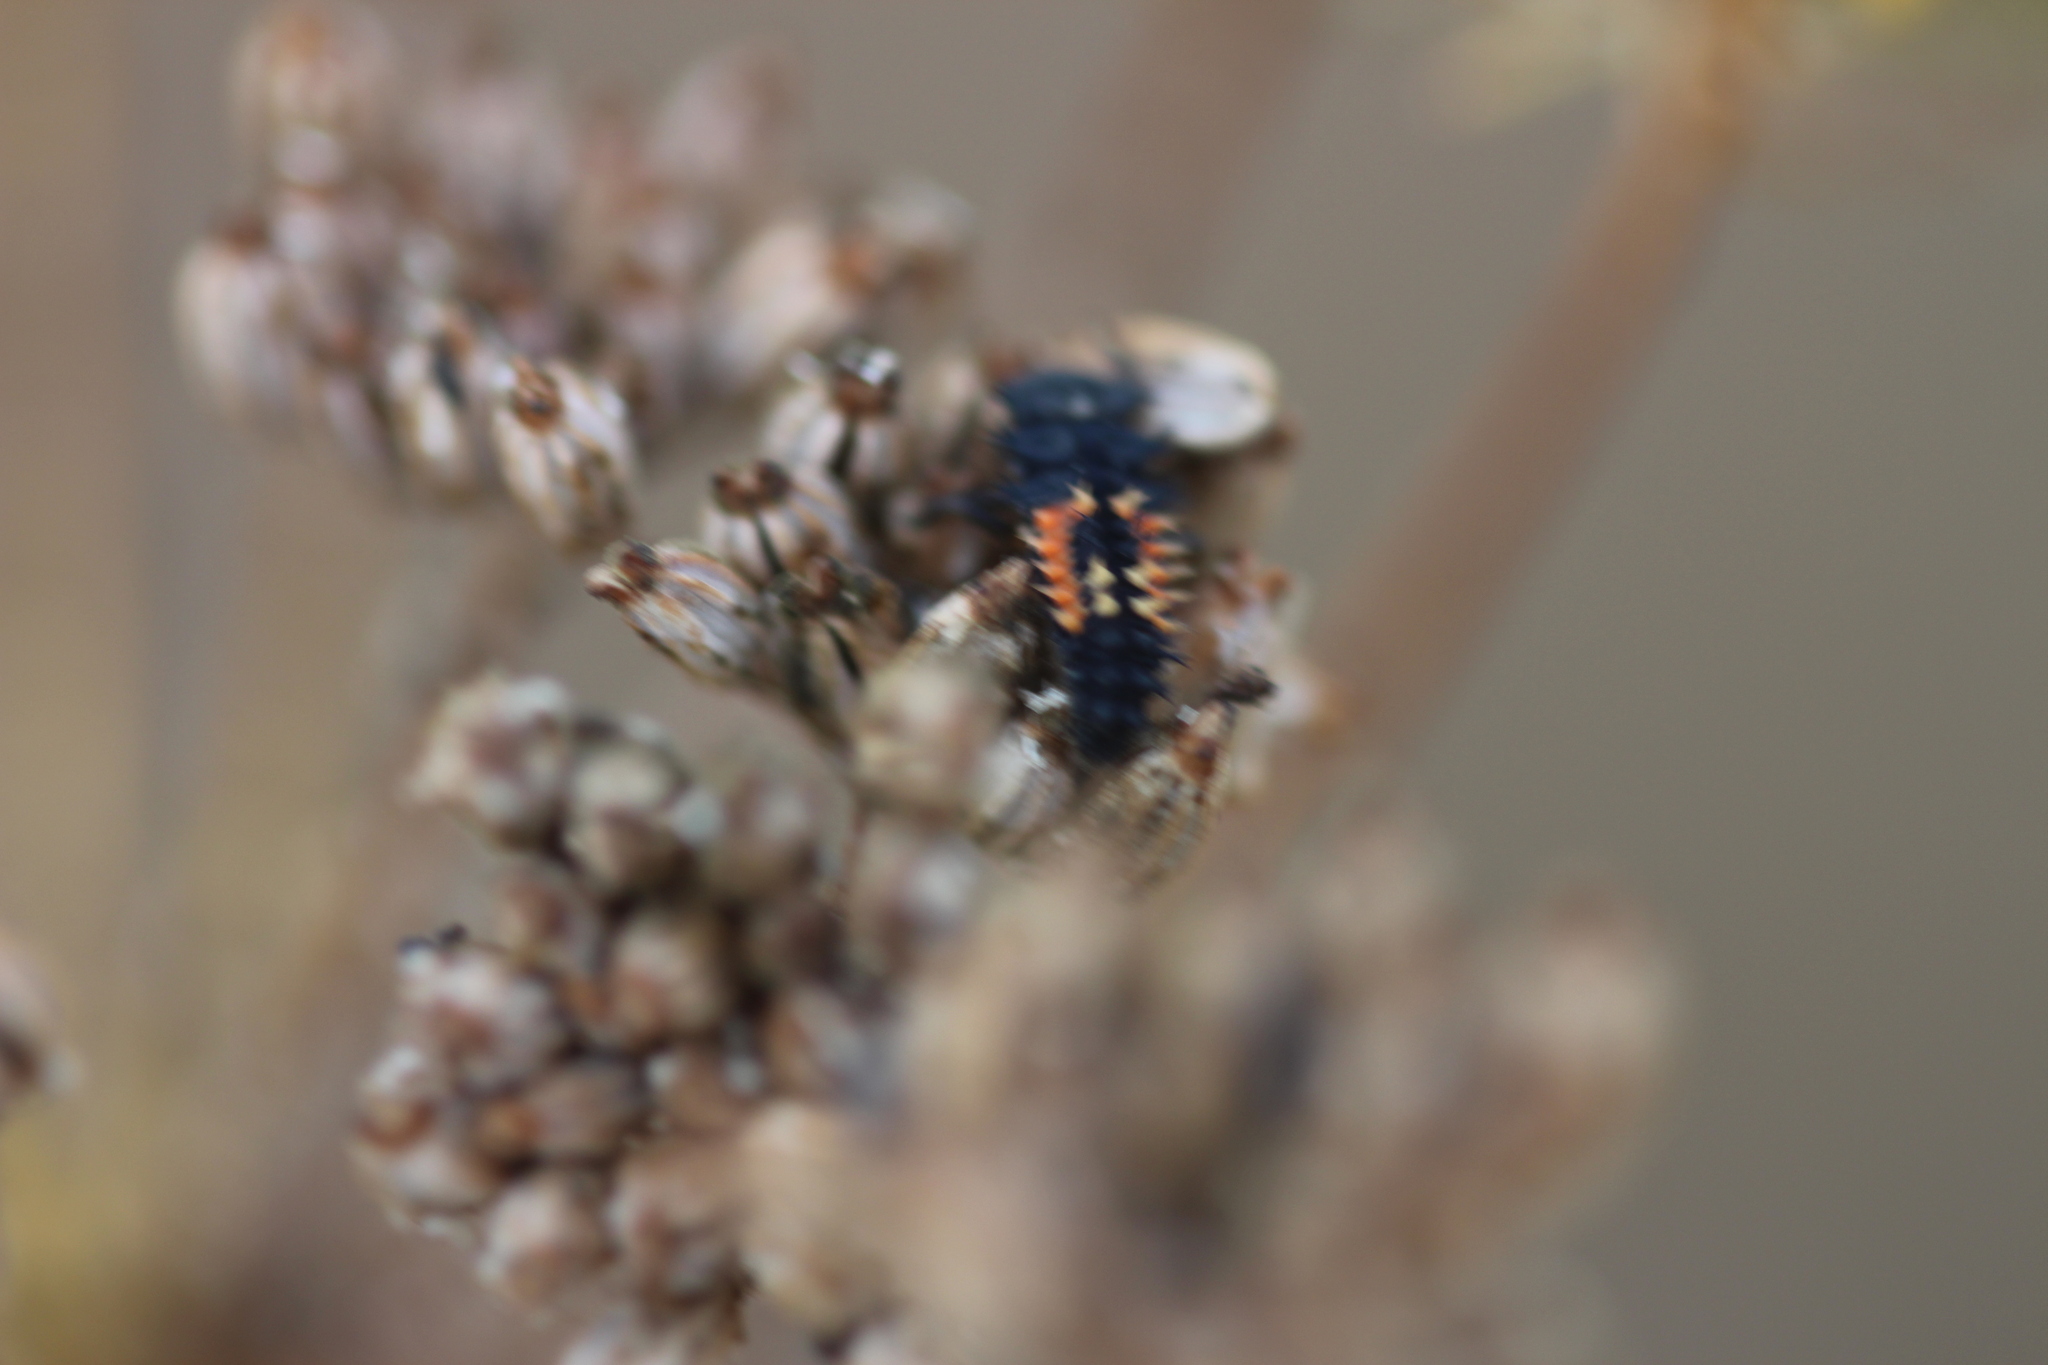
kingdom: Animalia
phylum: Arthropoda
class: Insecta
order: Coleoptera
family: Coccinellidae
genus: Harmonia
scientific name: Harmonia axyridis
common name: Harlequin ladybird
